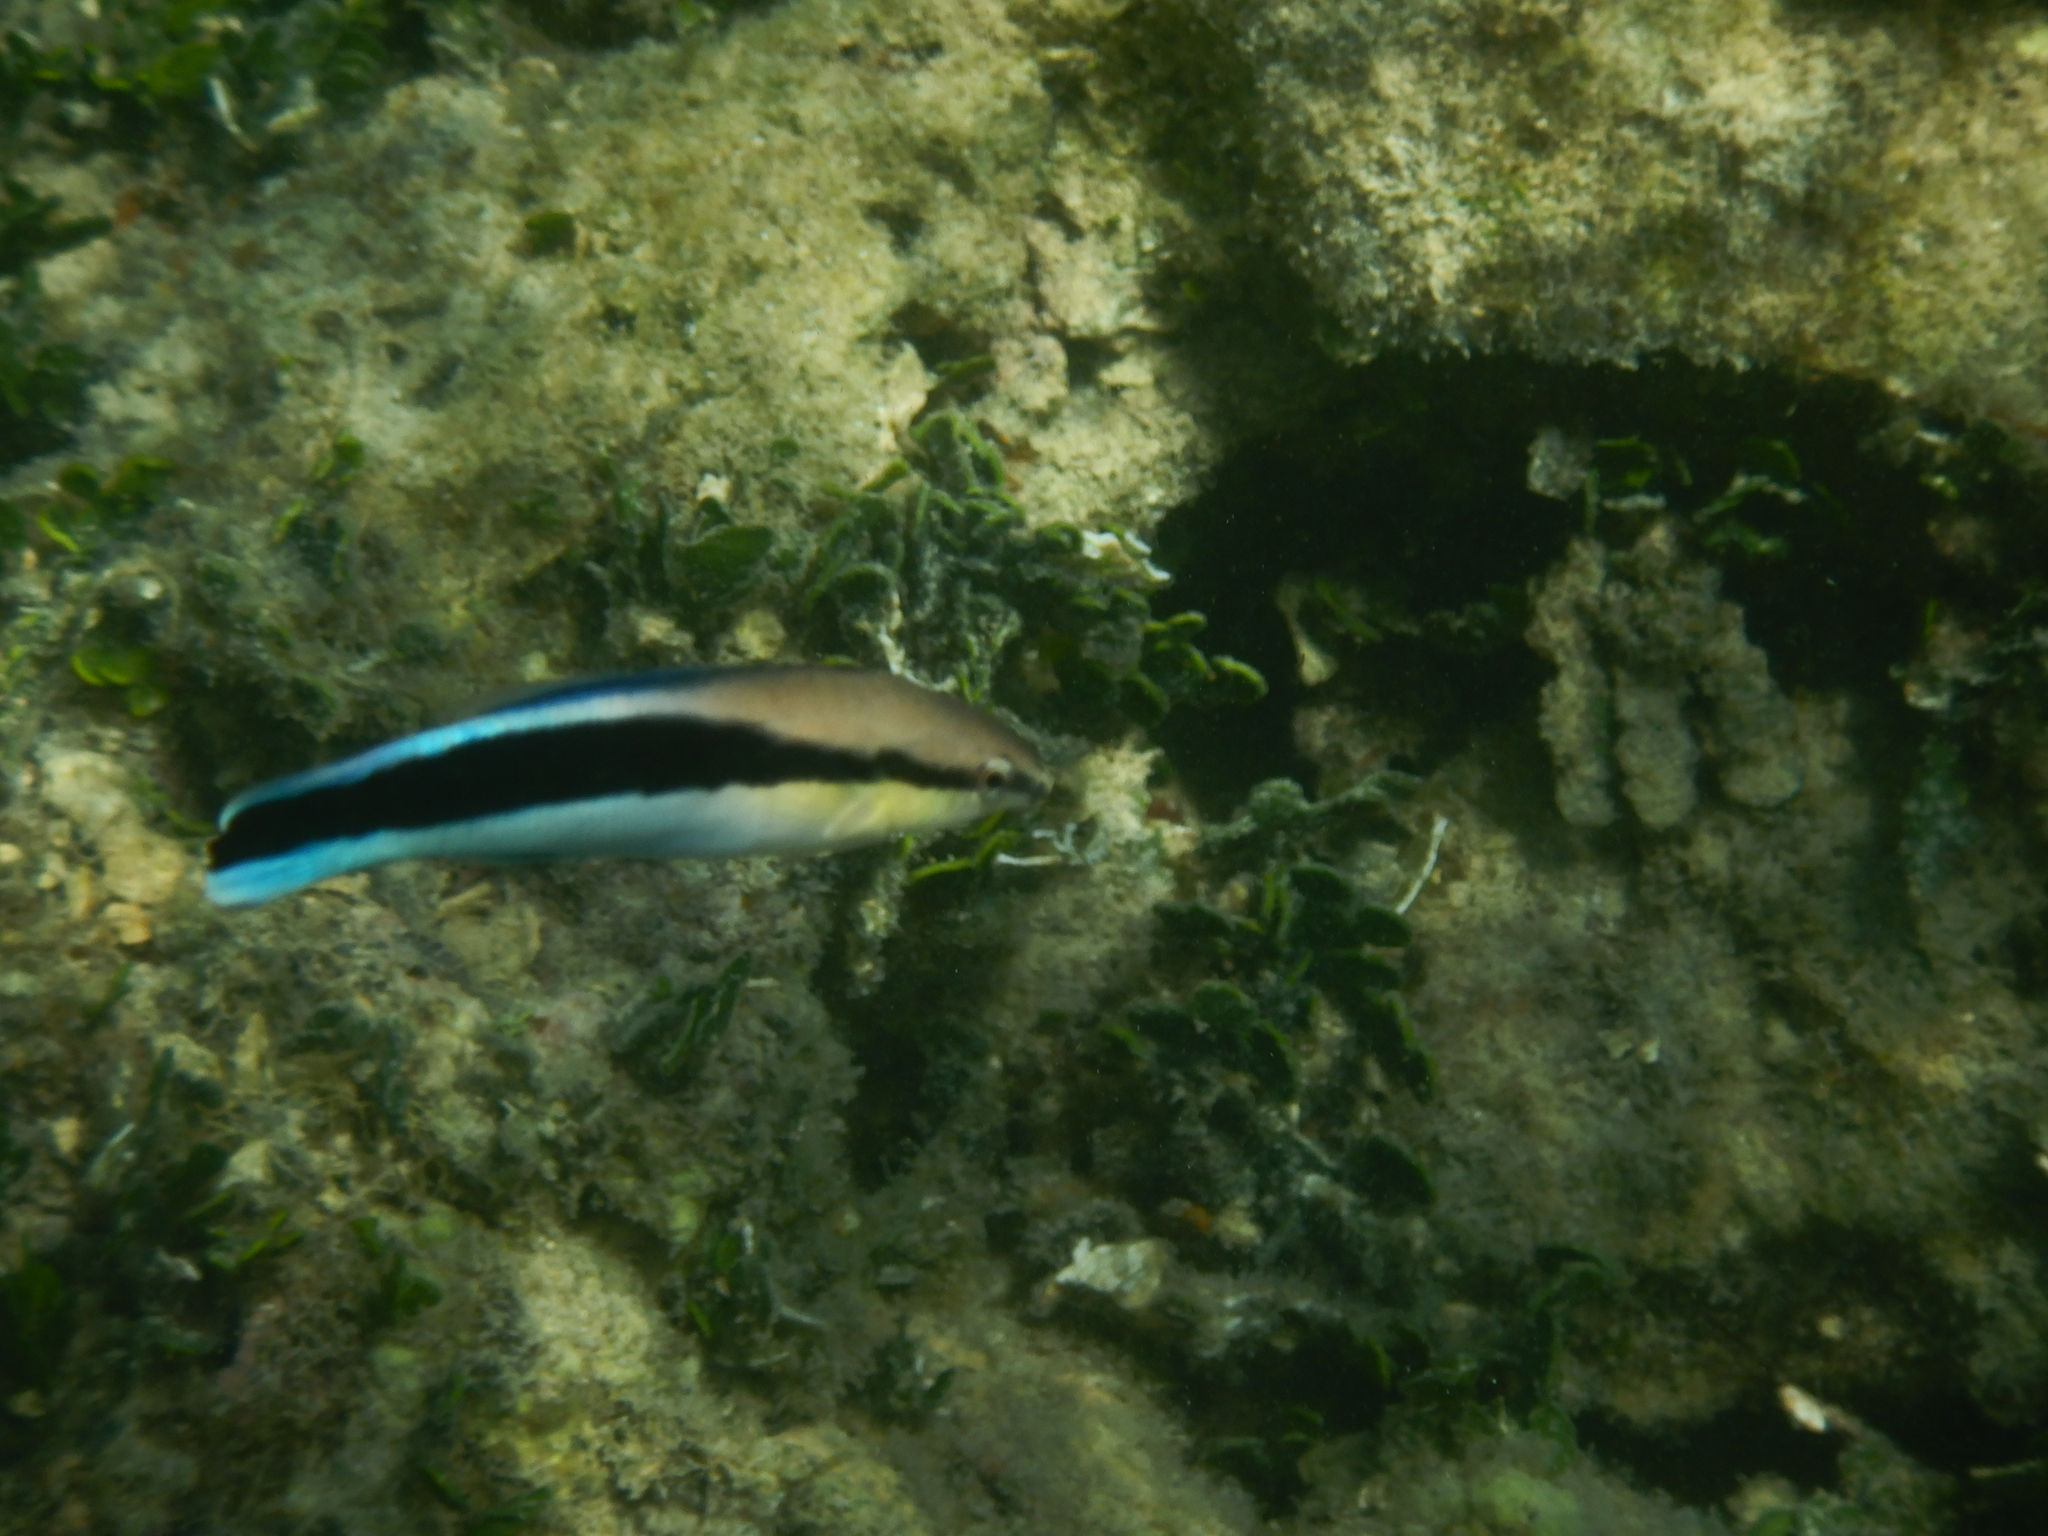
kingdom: Animalia
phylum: Chordata
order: Perciformes
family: Labridae
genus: Labroides
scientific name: Labroides dimidiatus
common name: Blue diesel wrasse
